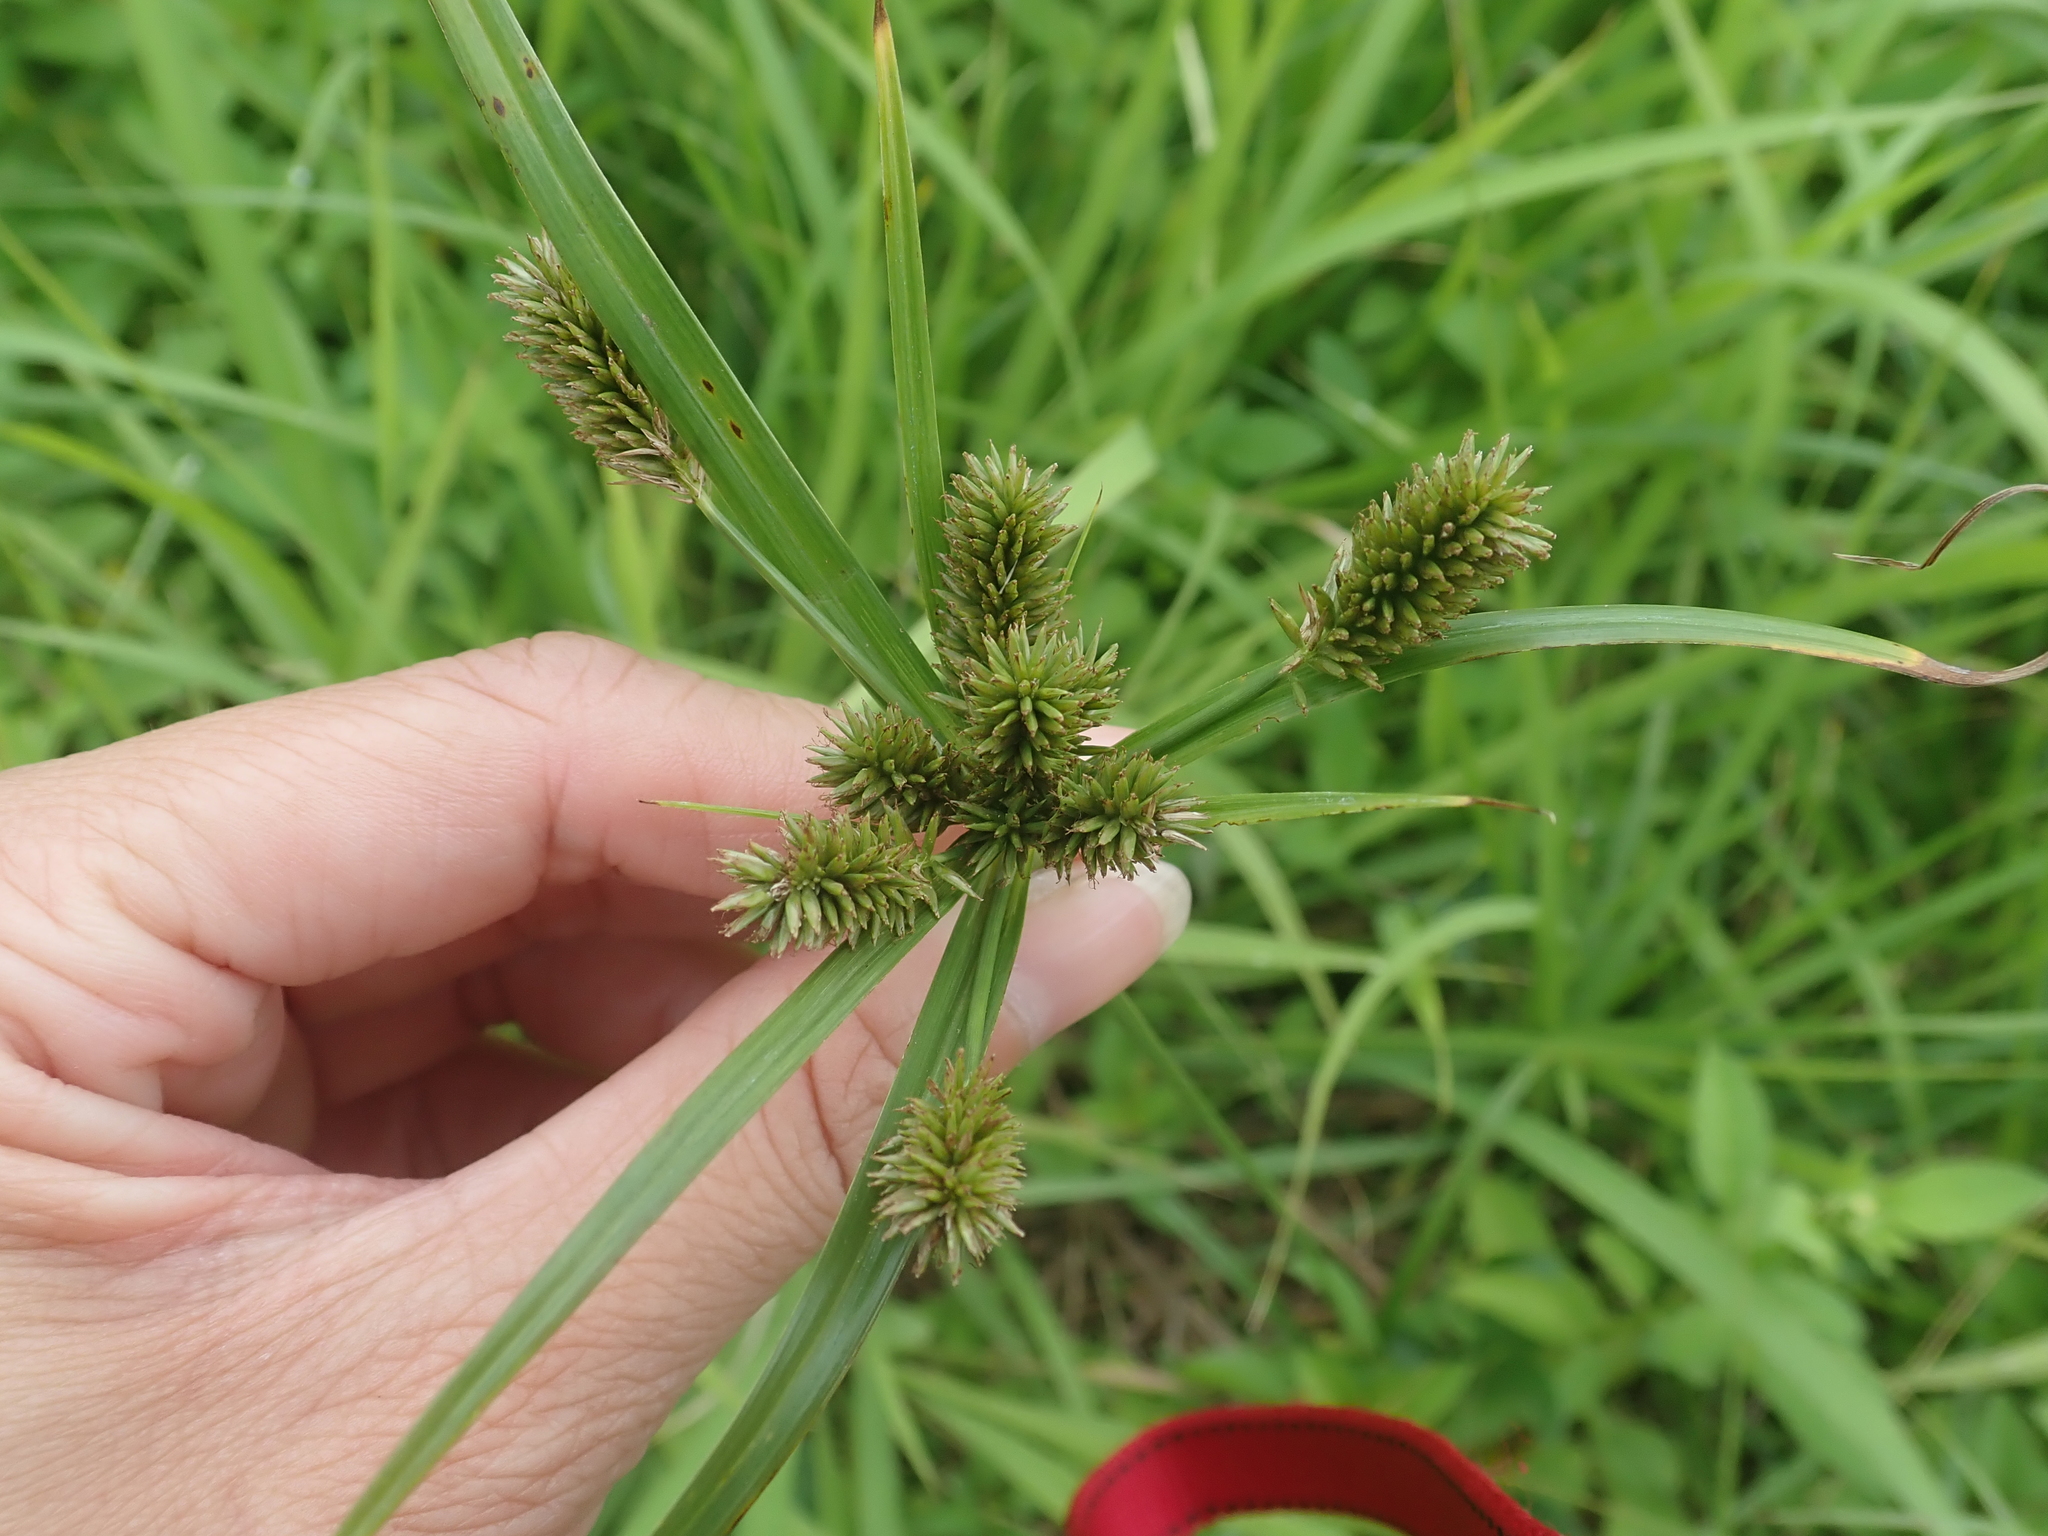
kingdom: Plantae
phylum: Tracheophyta
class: Liliopsida
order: Poales
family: Cyperaceae
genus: Cyperus
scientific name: Cyperus cyperoides
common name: Pacific island flat sedge
